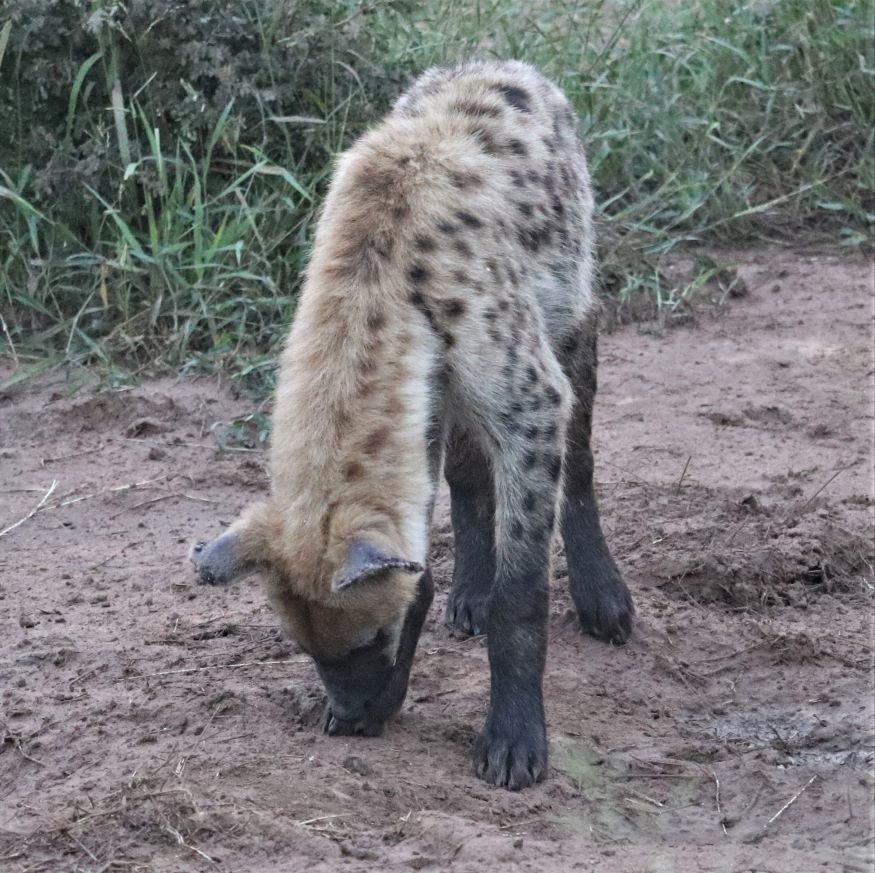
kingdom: Animalia
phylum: Chordata
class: Mammalia
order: Carnivora
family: Hyaenidae
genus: Crocuta
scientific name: Crocuta crocuta
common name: Spotted hyaena
